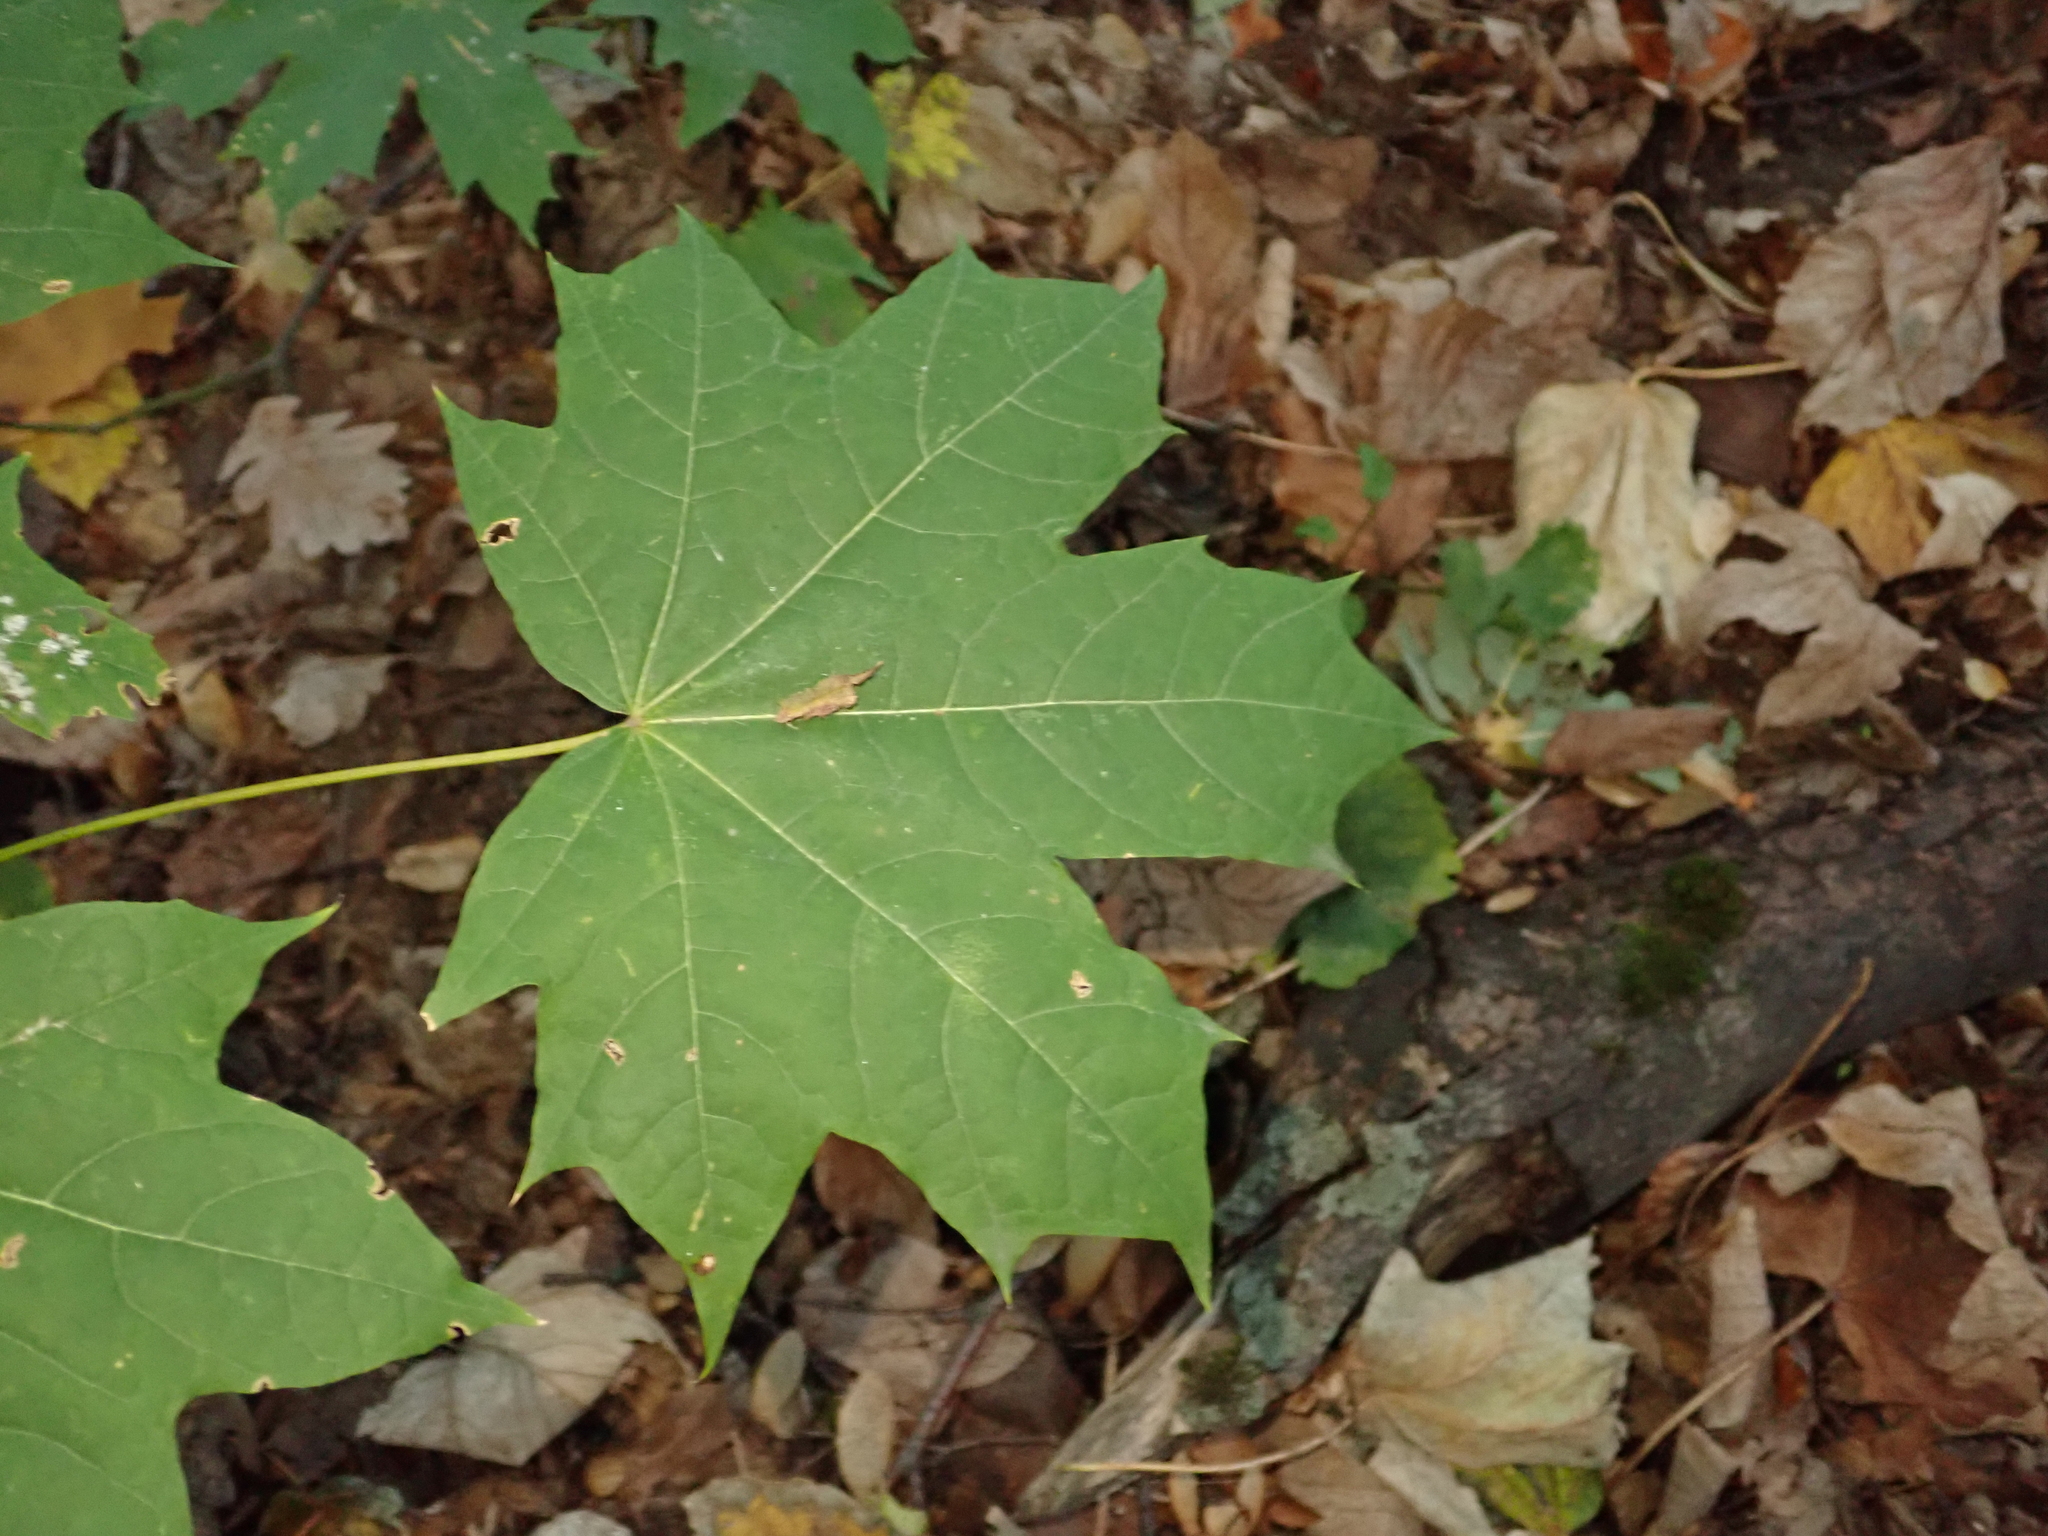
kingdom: Plantae
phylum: Tracheophyta
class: Magnoliopsida
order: Sapindales
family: Sapindaceae
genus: Acer
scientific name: Acer platanoides
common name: Norway maple
